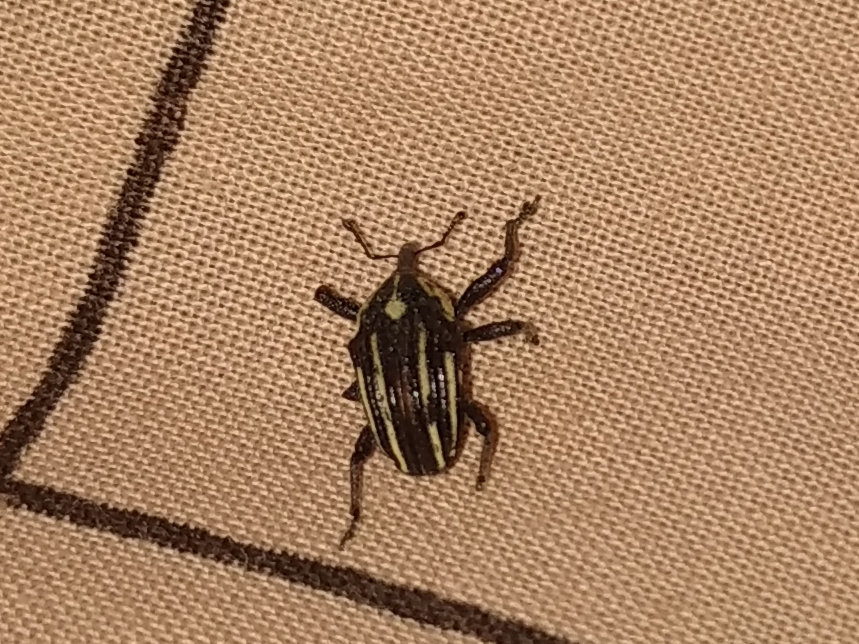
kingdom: Animalia
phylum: Arthropoda
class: Insecta
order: Coleoptera
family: Curculionidae
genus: Sternuchopsis
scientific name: Sternuchopsis
